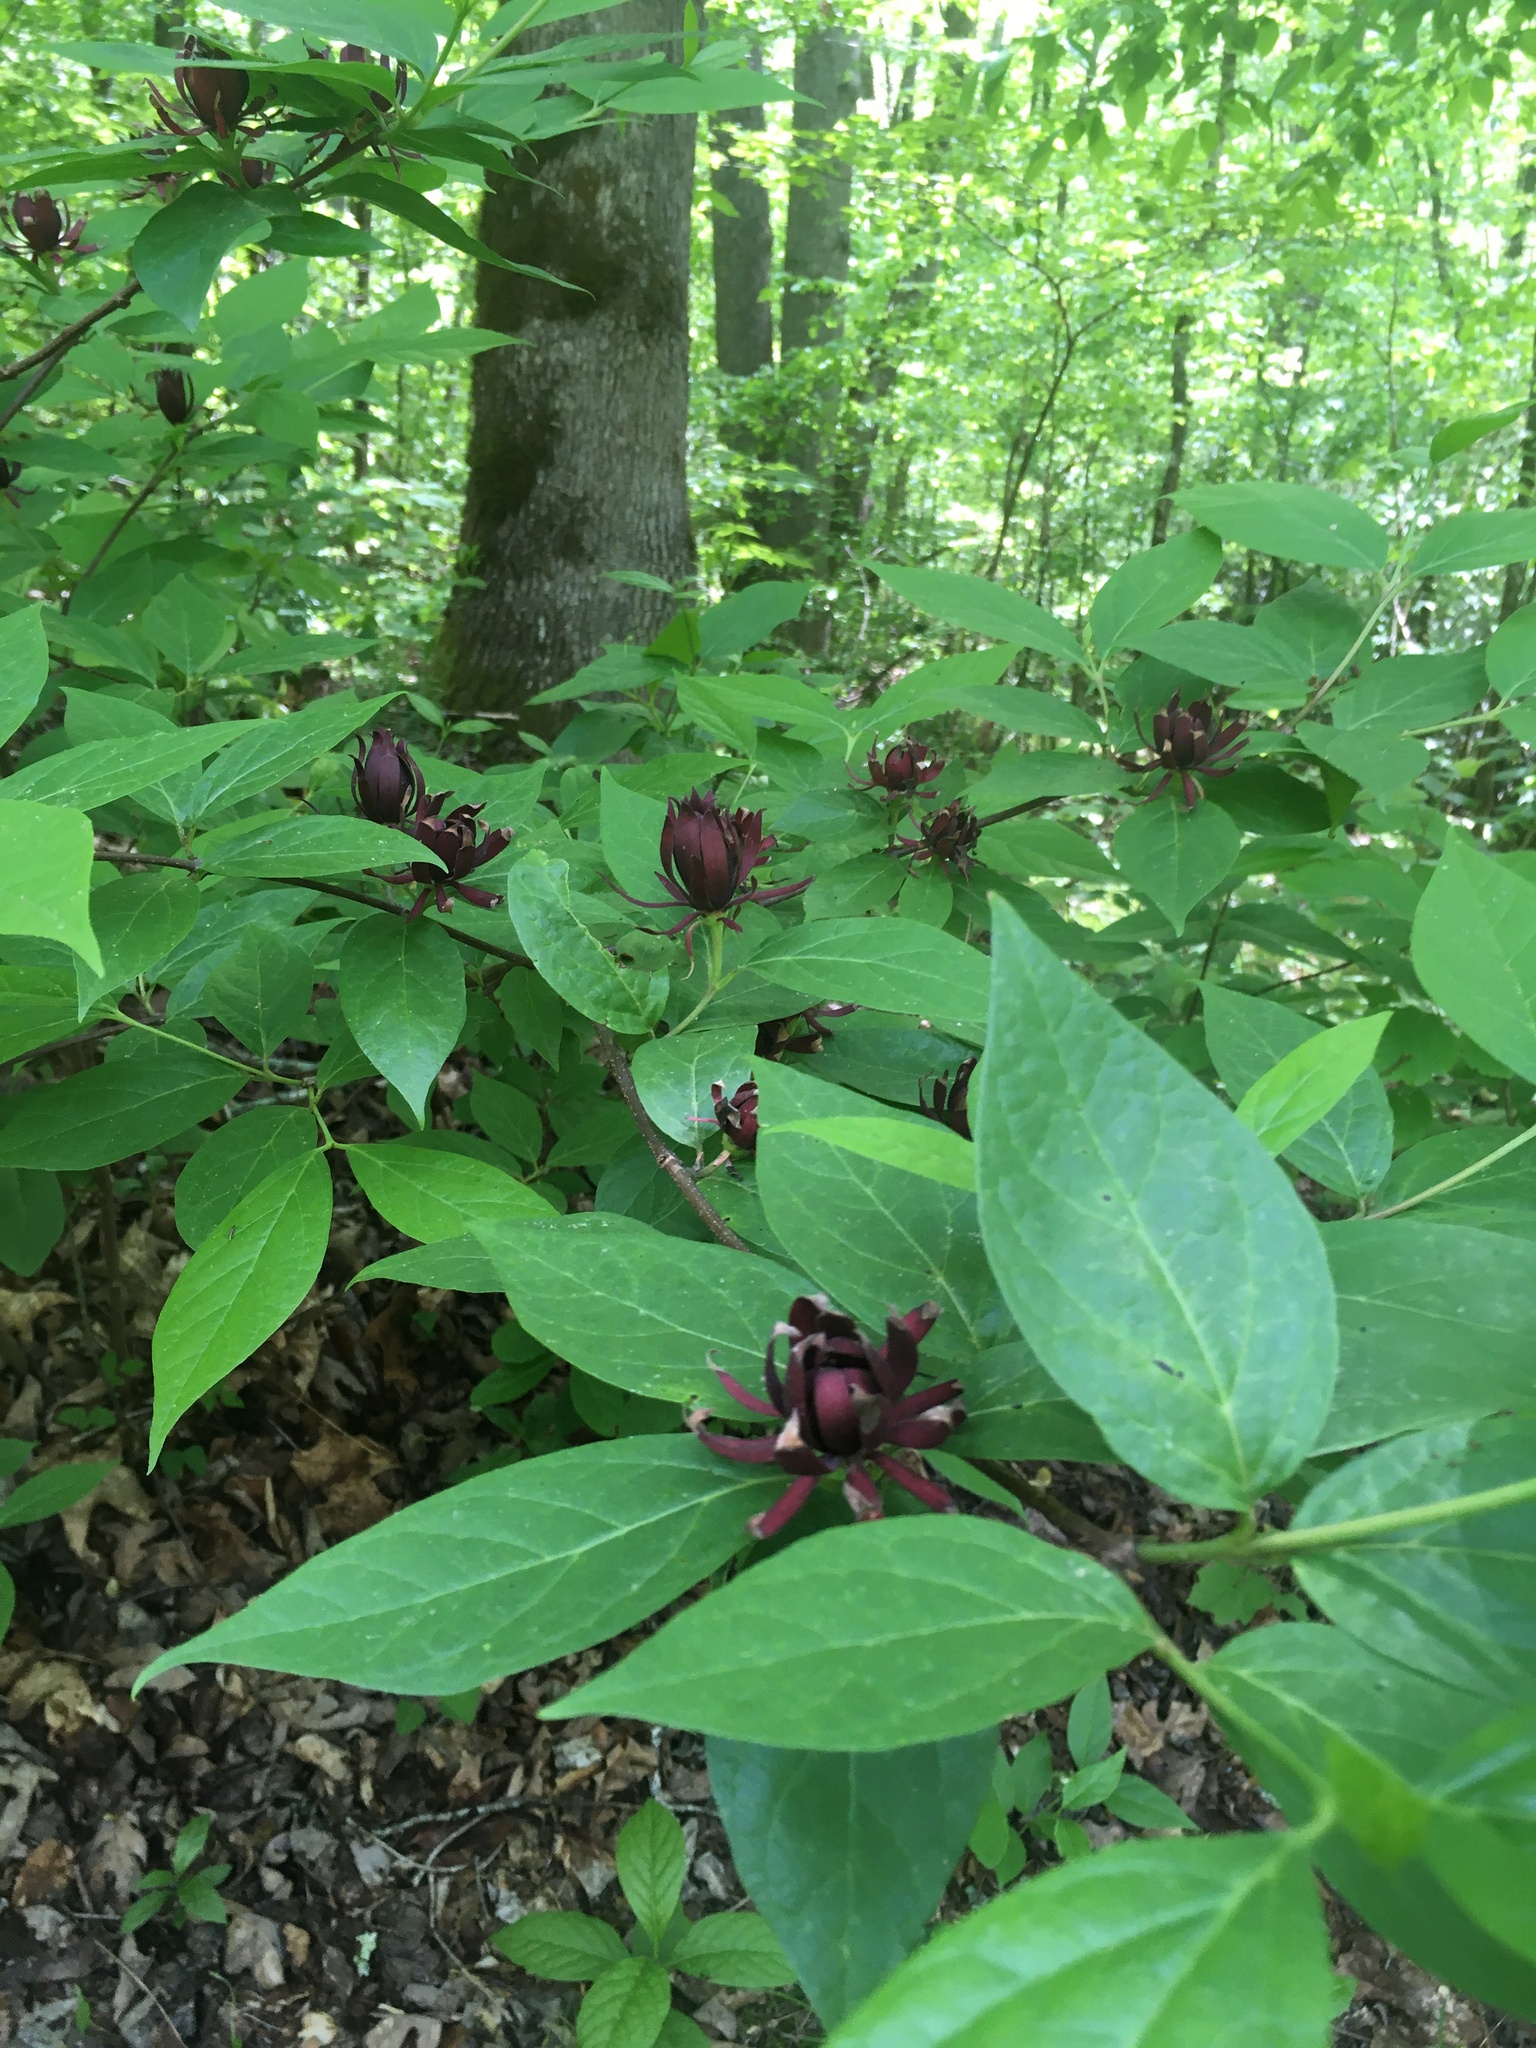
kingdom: Plantae
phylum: Tracheophyta
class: Magnoliopsida
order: Laurales
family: Calycanthaceae
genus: Calycanthus
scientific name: Calycanthus floridus
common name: Carolina-allspice
